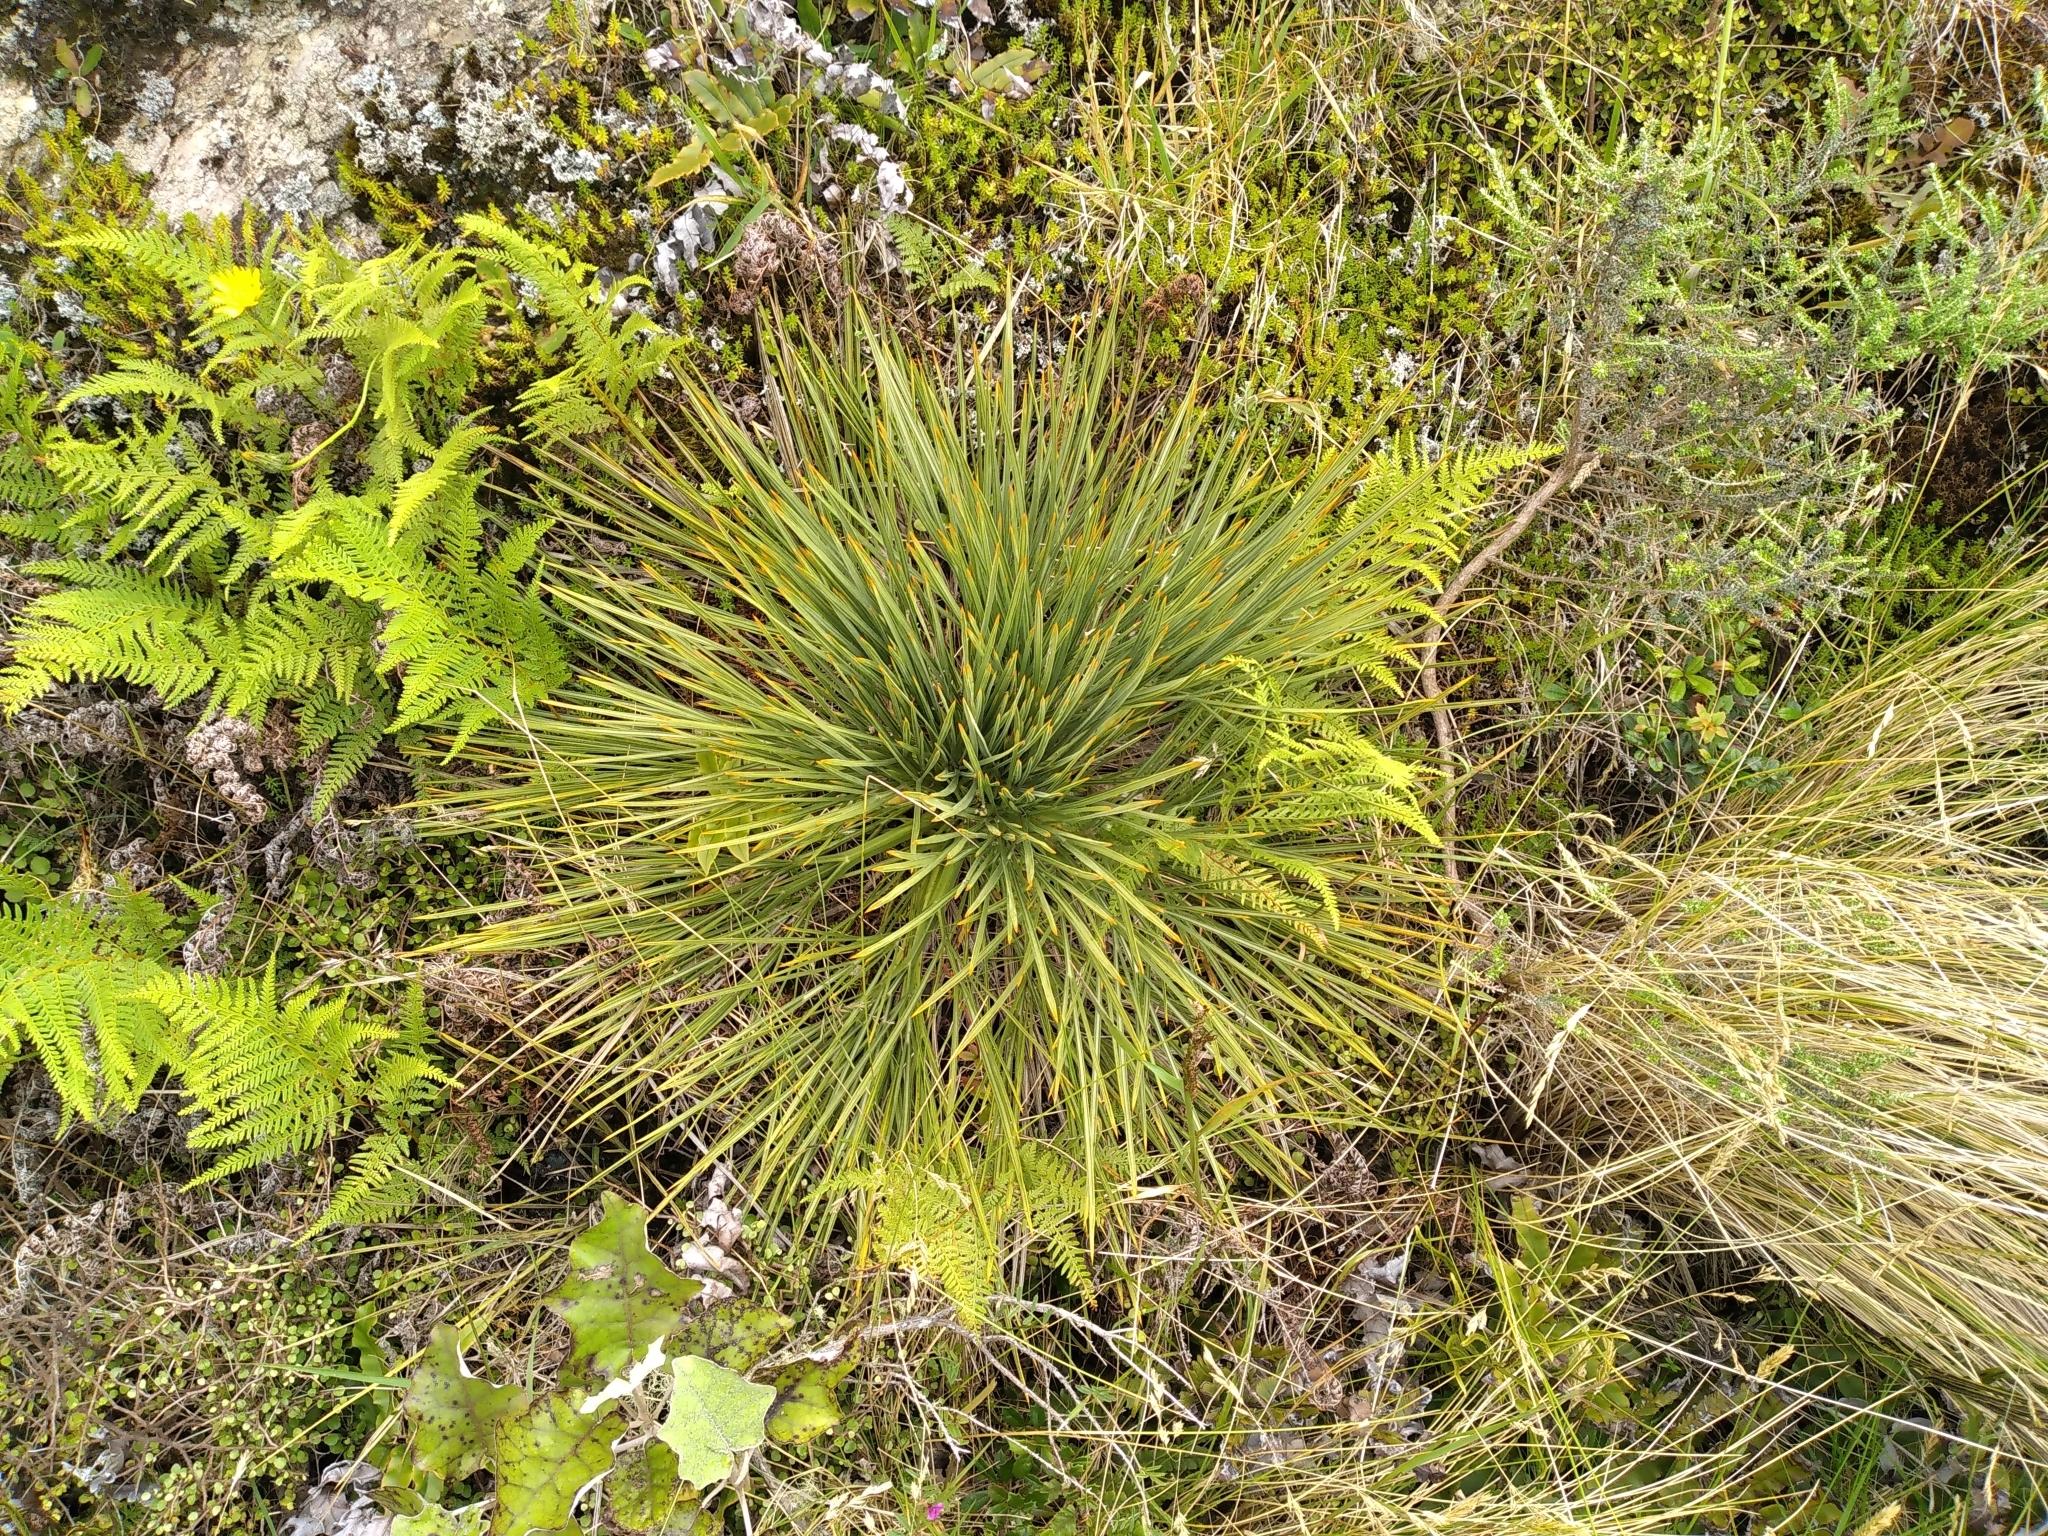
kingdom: Plantae
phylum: Tracheophyta
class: Magnoliopsida
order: Apiales
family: Apiaceae
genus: Aciphylla
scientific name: Aciphylla squarrosa
